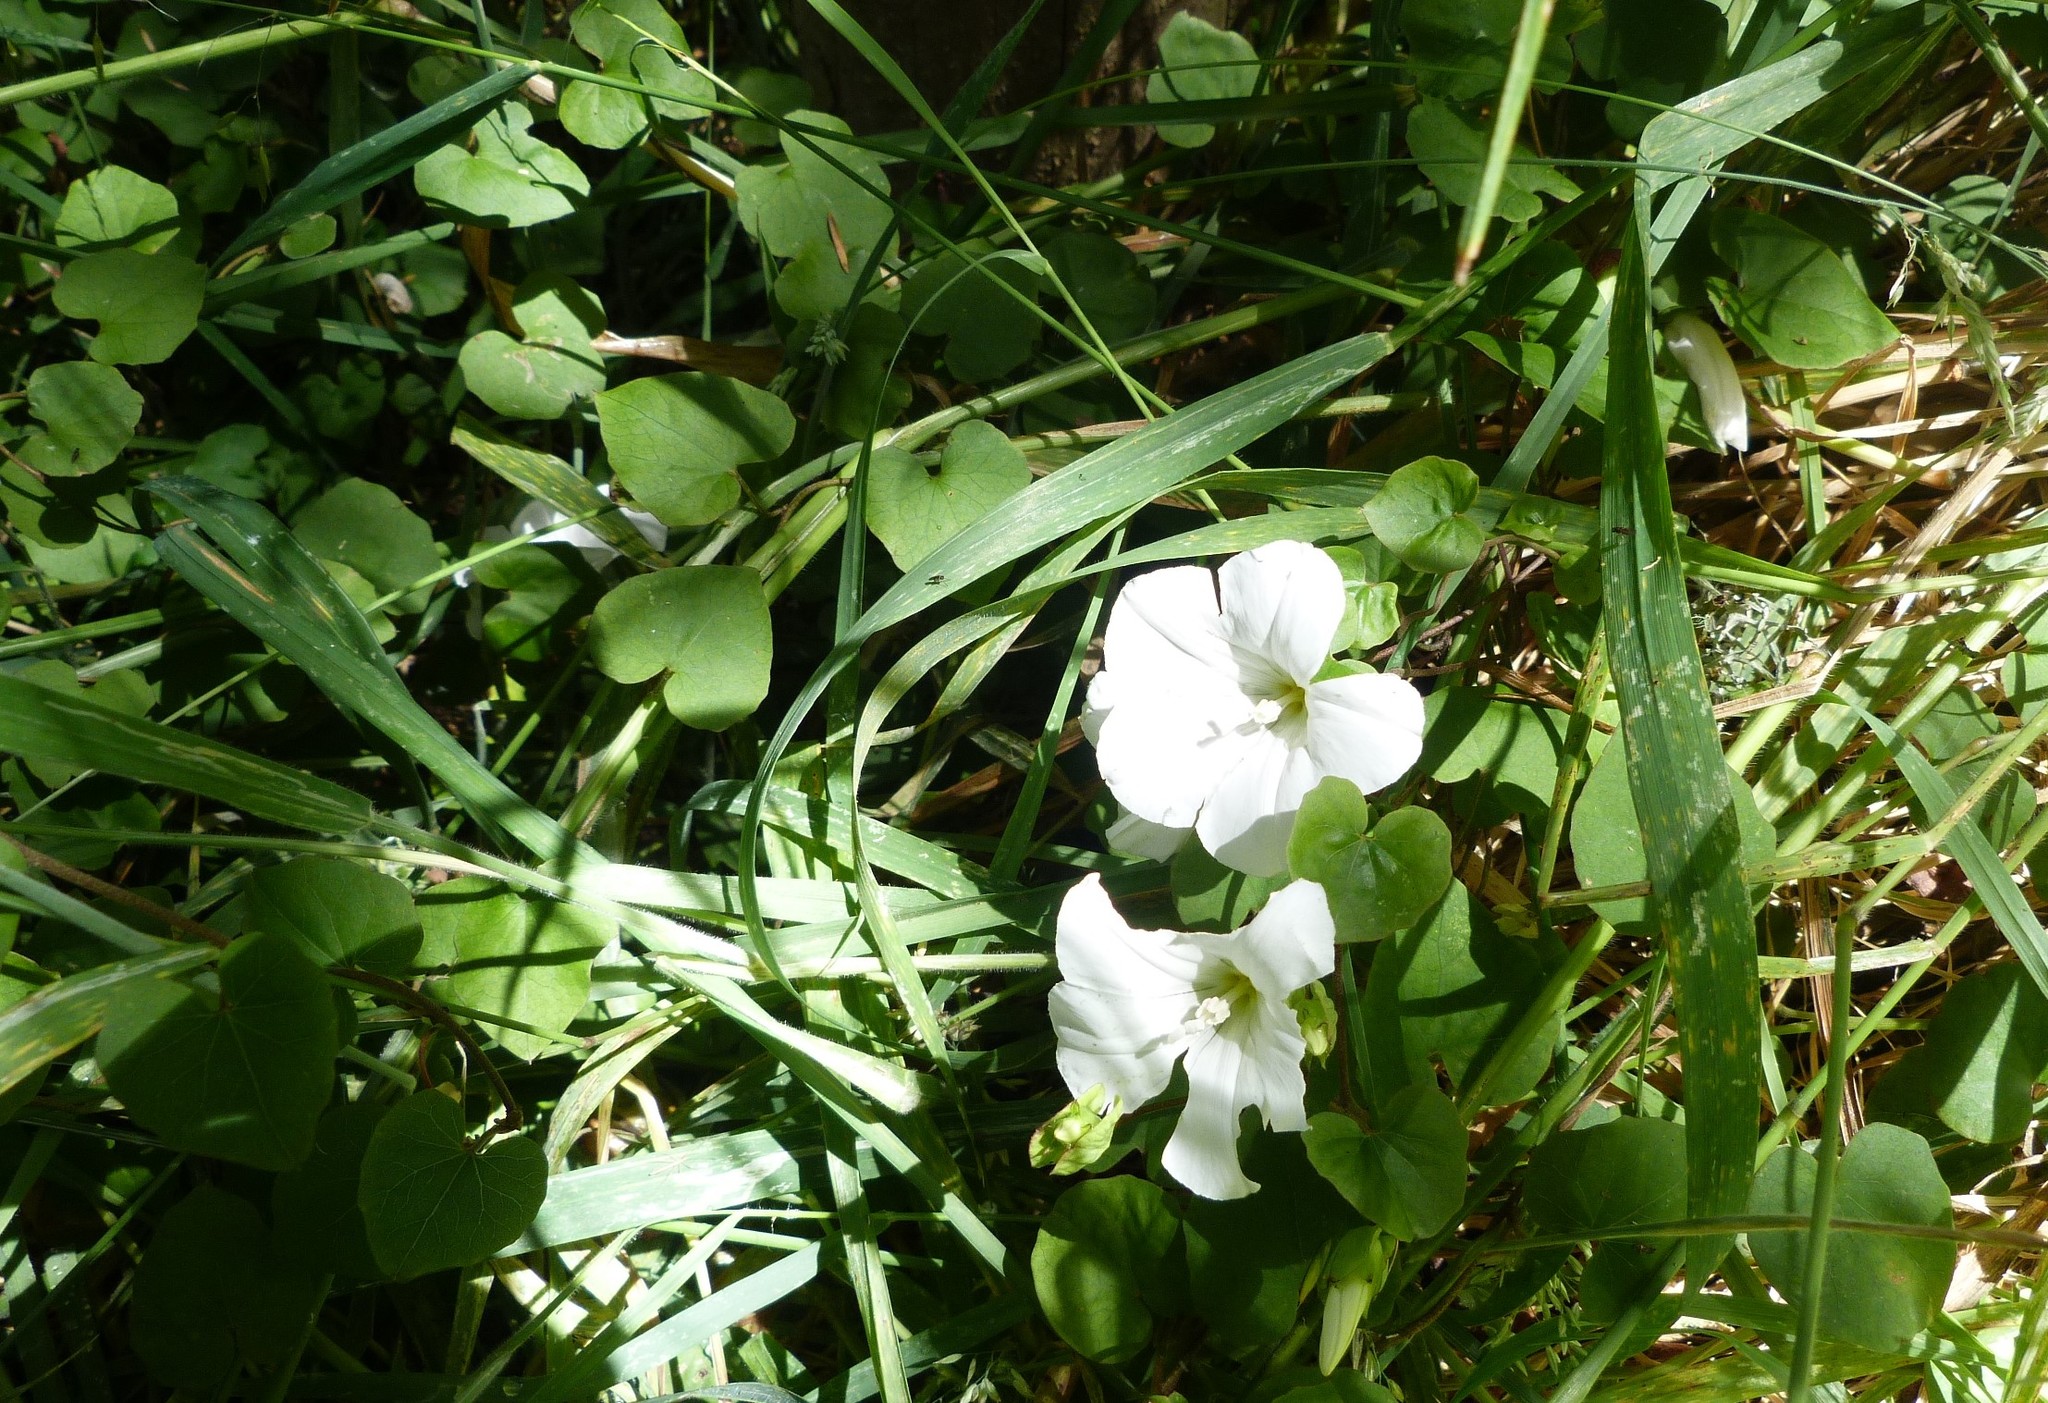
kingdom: Plantae
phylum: Tracheophyta
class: Magnoliopsida
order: Solanales
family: Convolvulaceae
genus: Calystegia
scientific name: Calystegia tuguriorum
